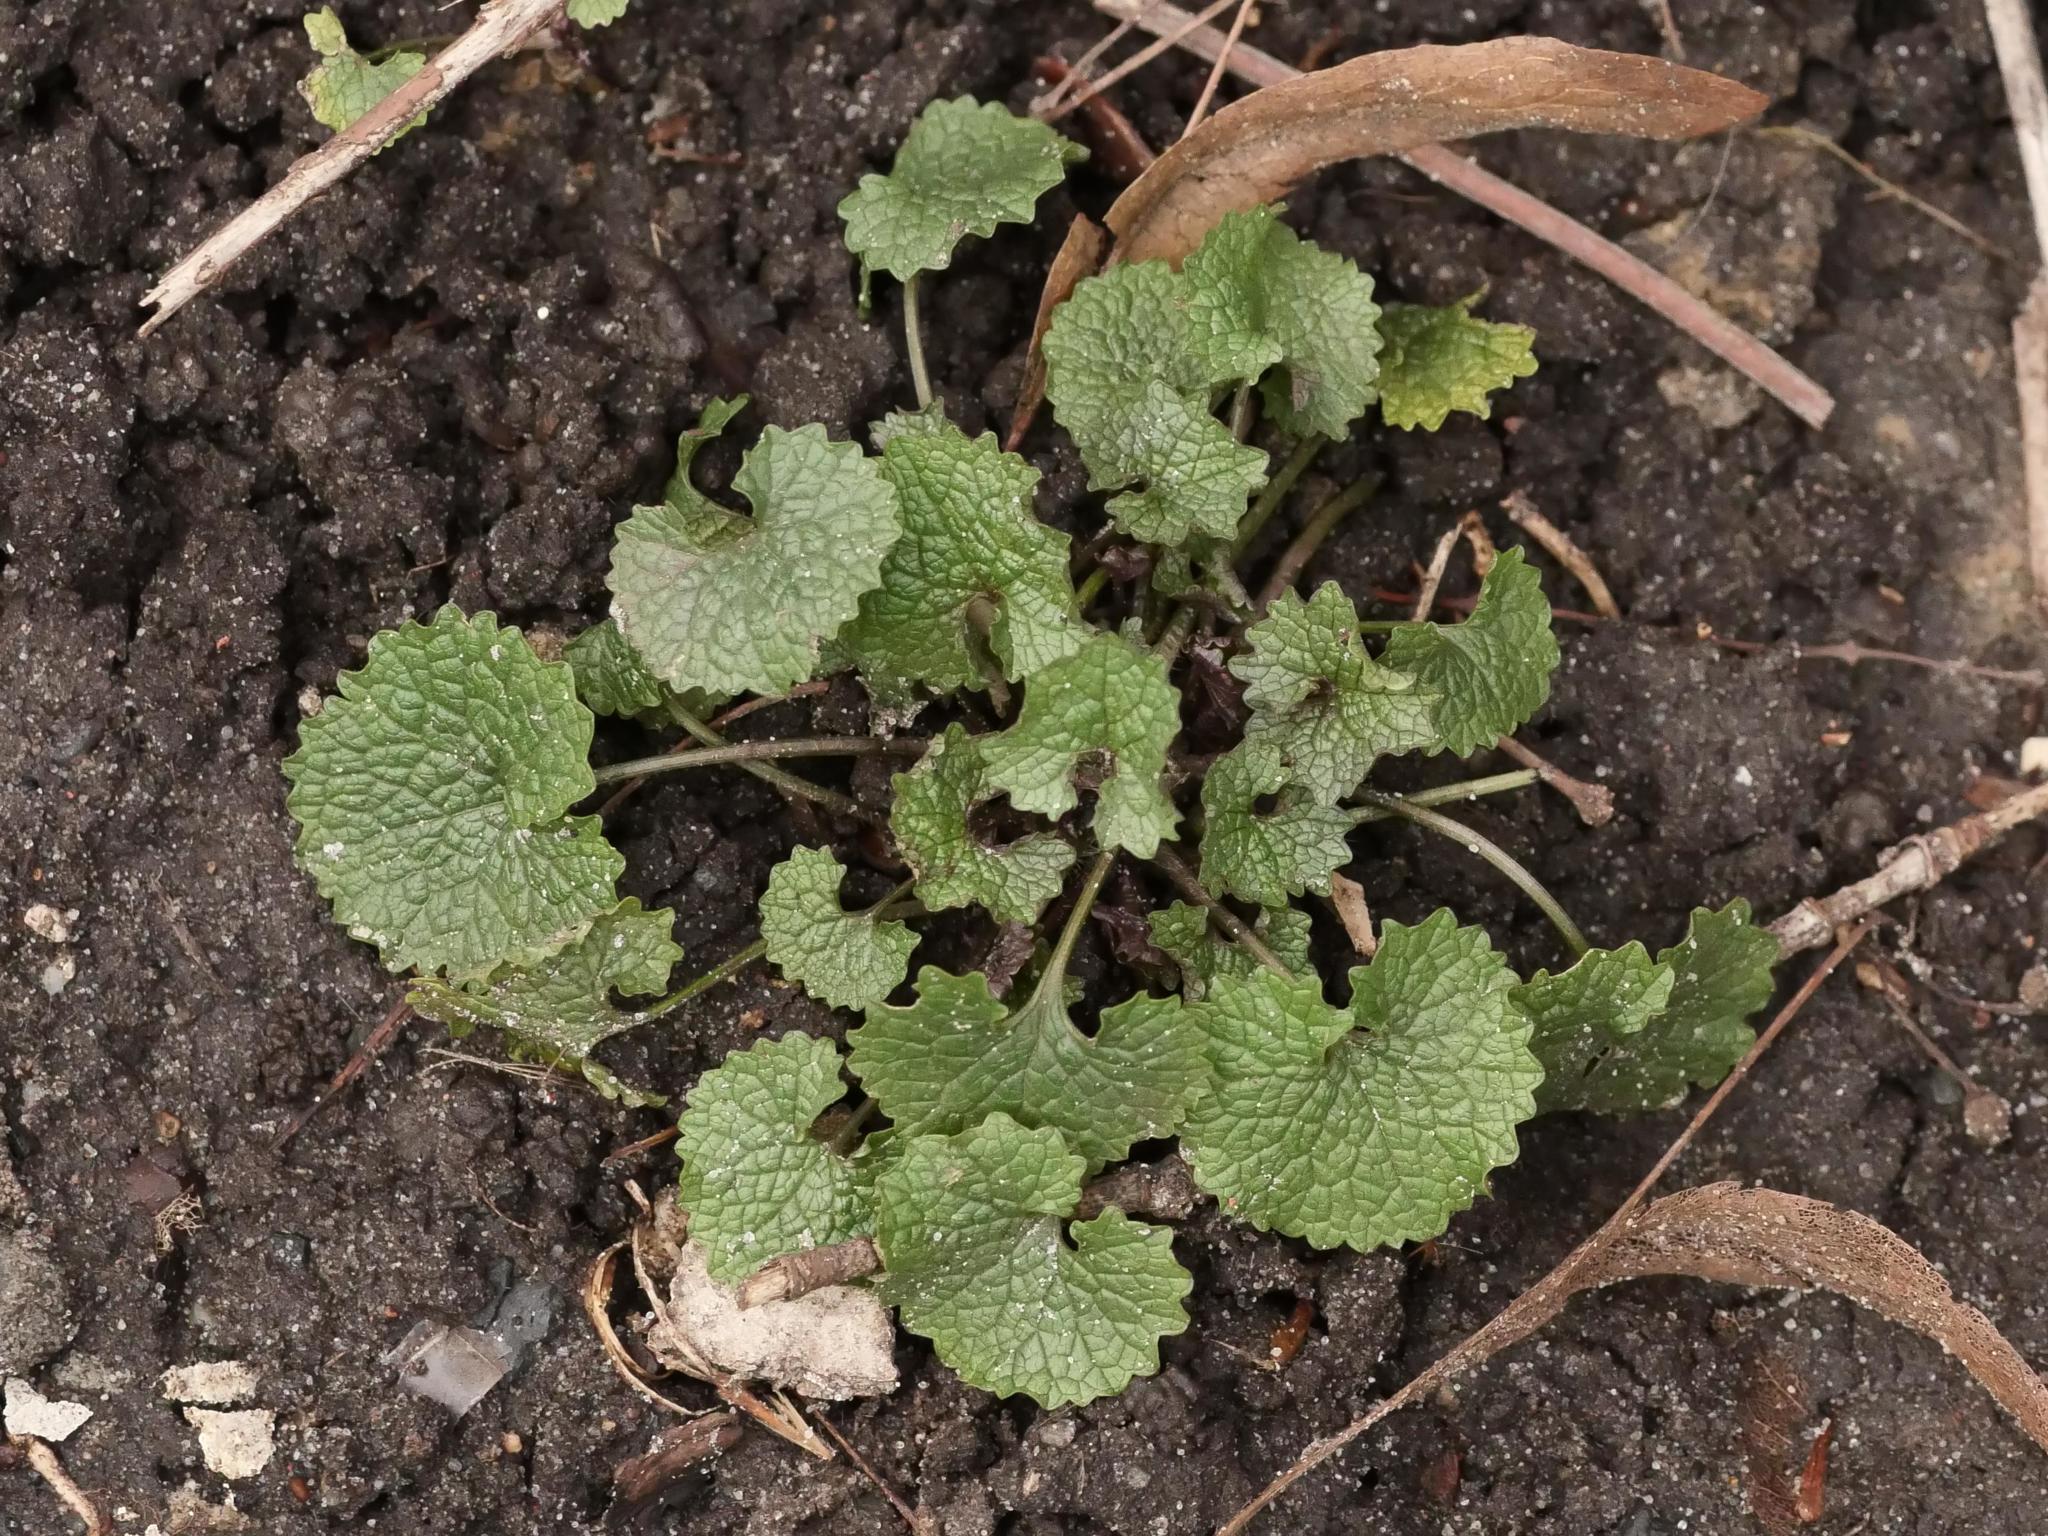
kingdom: Plantae
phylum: Tracheophyta
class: Magnoliopsida
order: Brassicales
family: Brassicaceae
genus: Alliaria
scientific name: Alliaria petiolata
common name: Garlic mustard
